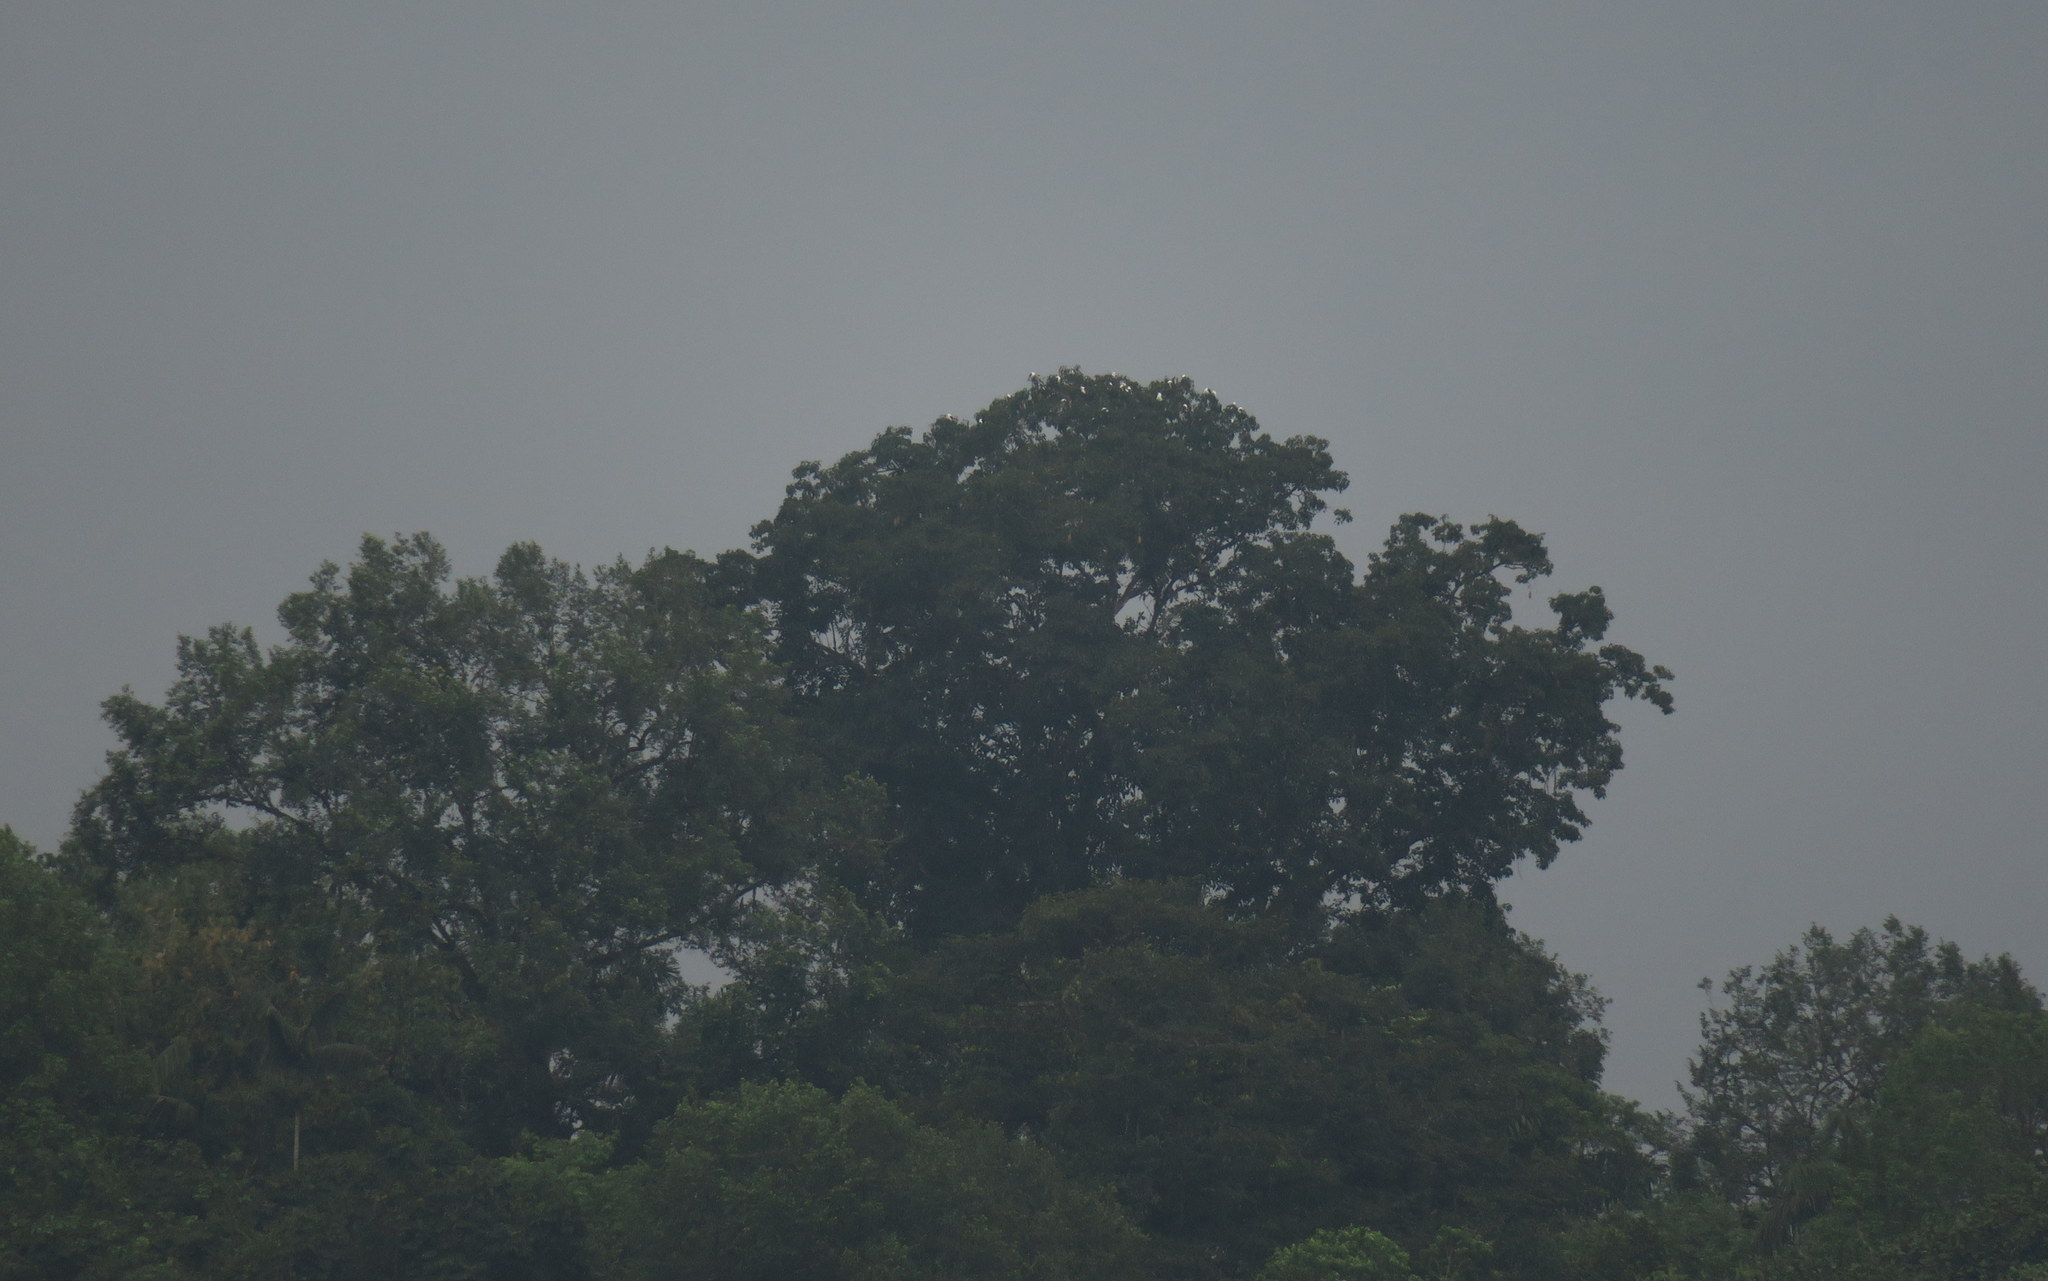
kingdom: Animalia
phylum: Chordata
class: Aves
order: Accipitriformes
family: Accipitridae
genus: Elanoides
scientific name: Elanoides forficatus
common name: Swallow-tailed kite
